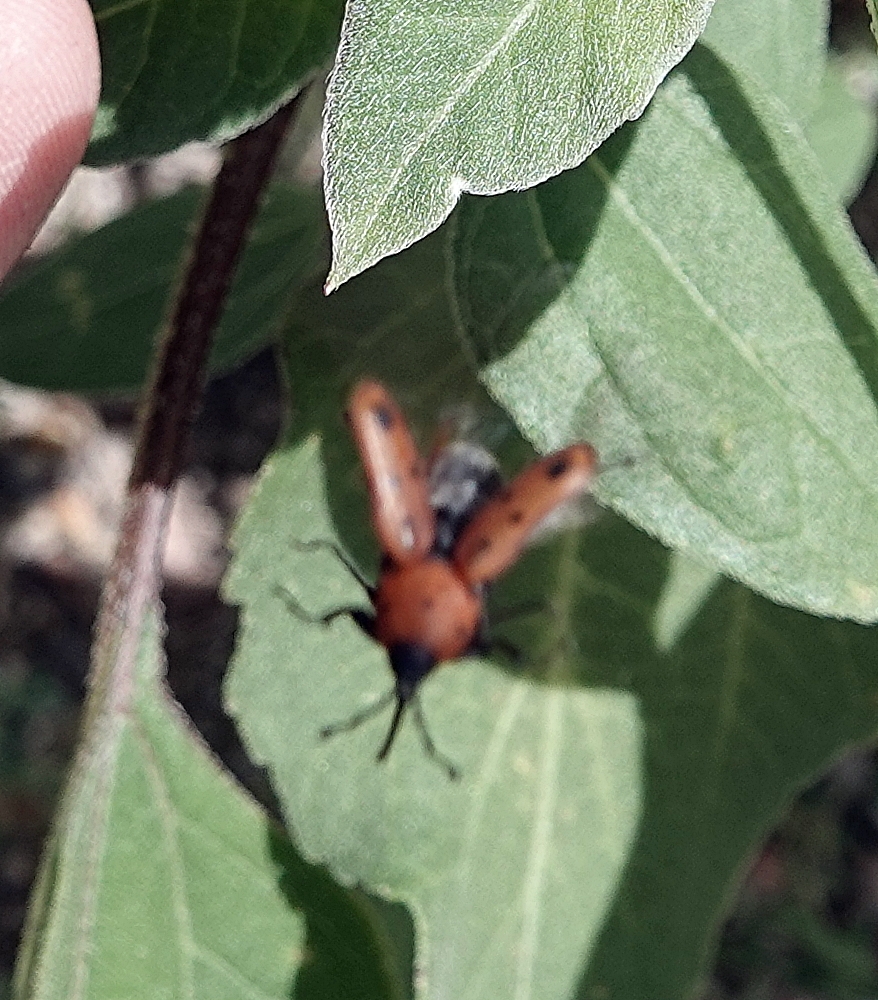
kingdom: Animalia
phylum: Arthropoda
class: Insecta
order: Coleoptera
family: Dryophthoridae
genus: Rhodobaenus
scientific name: Rhodobaenus tredecimpunctatus
